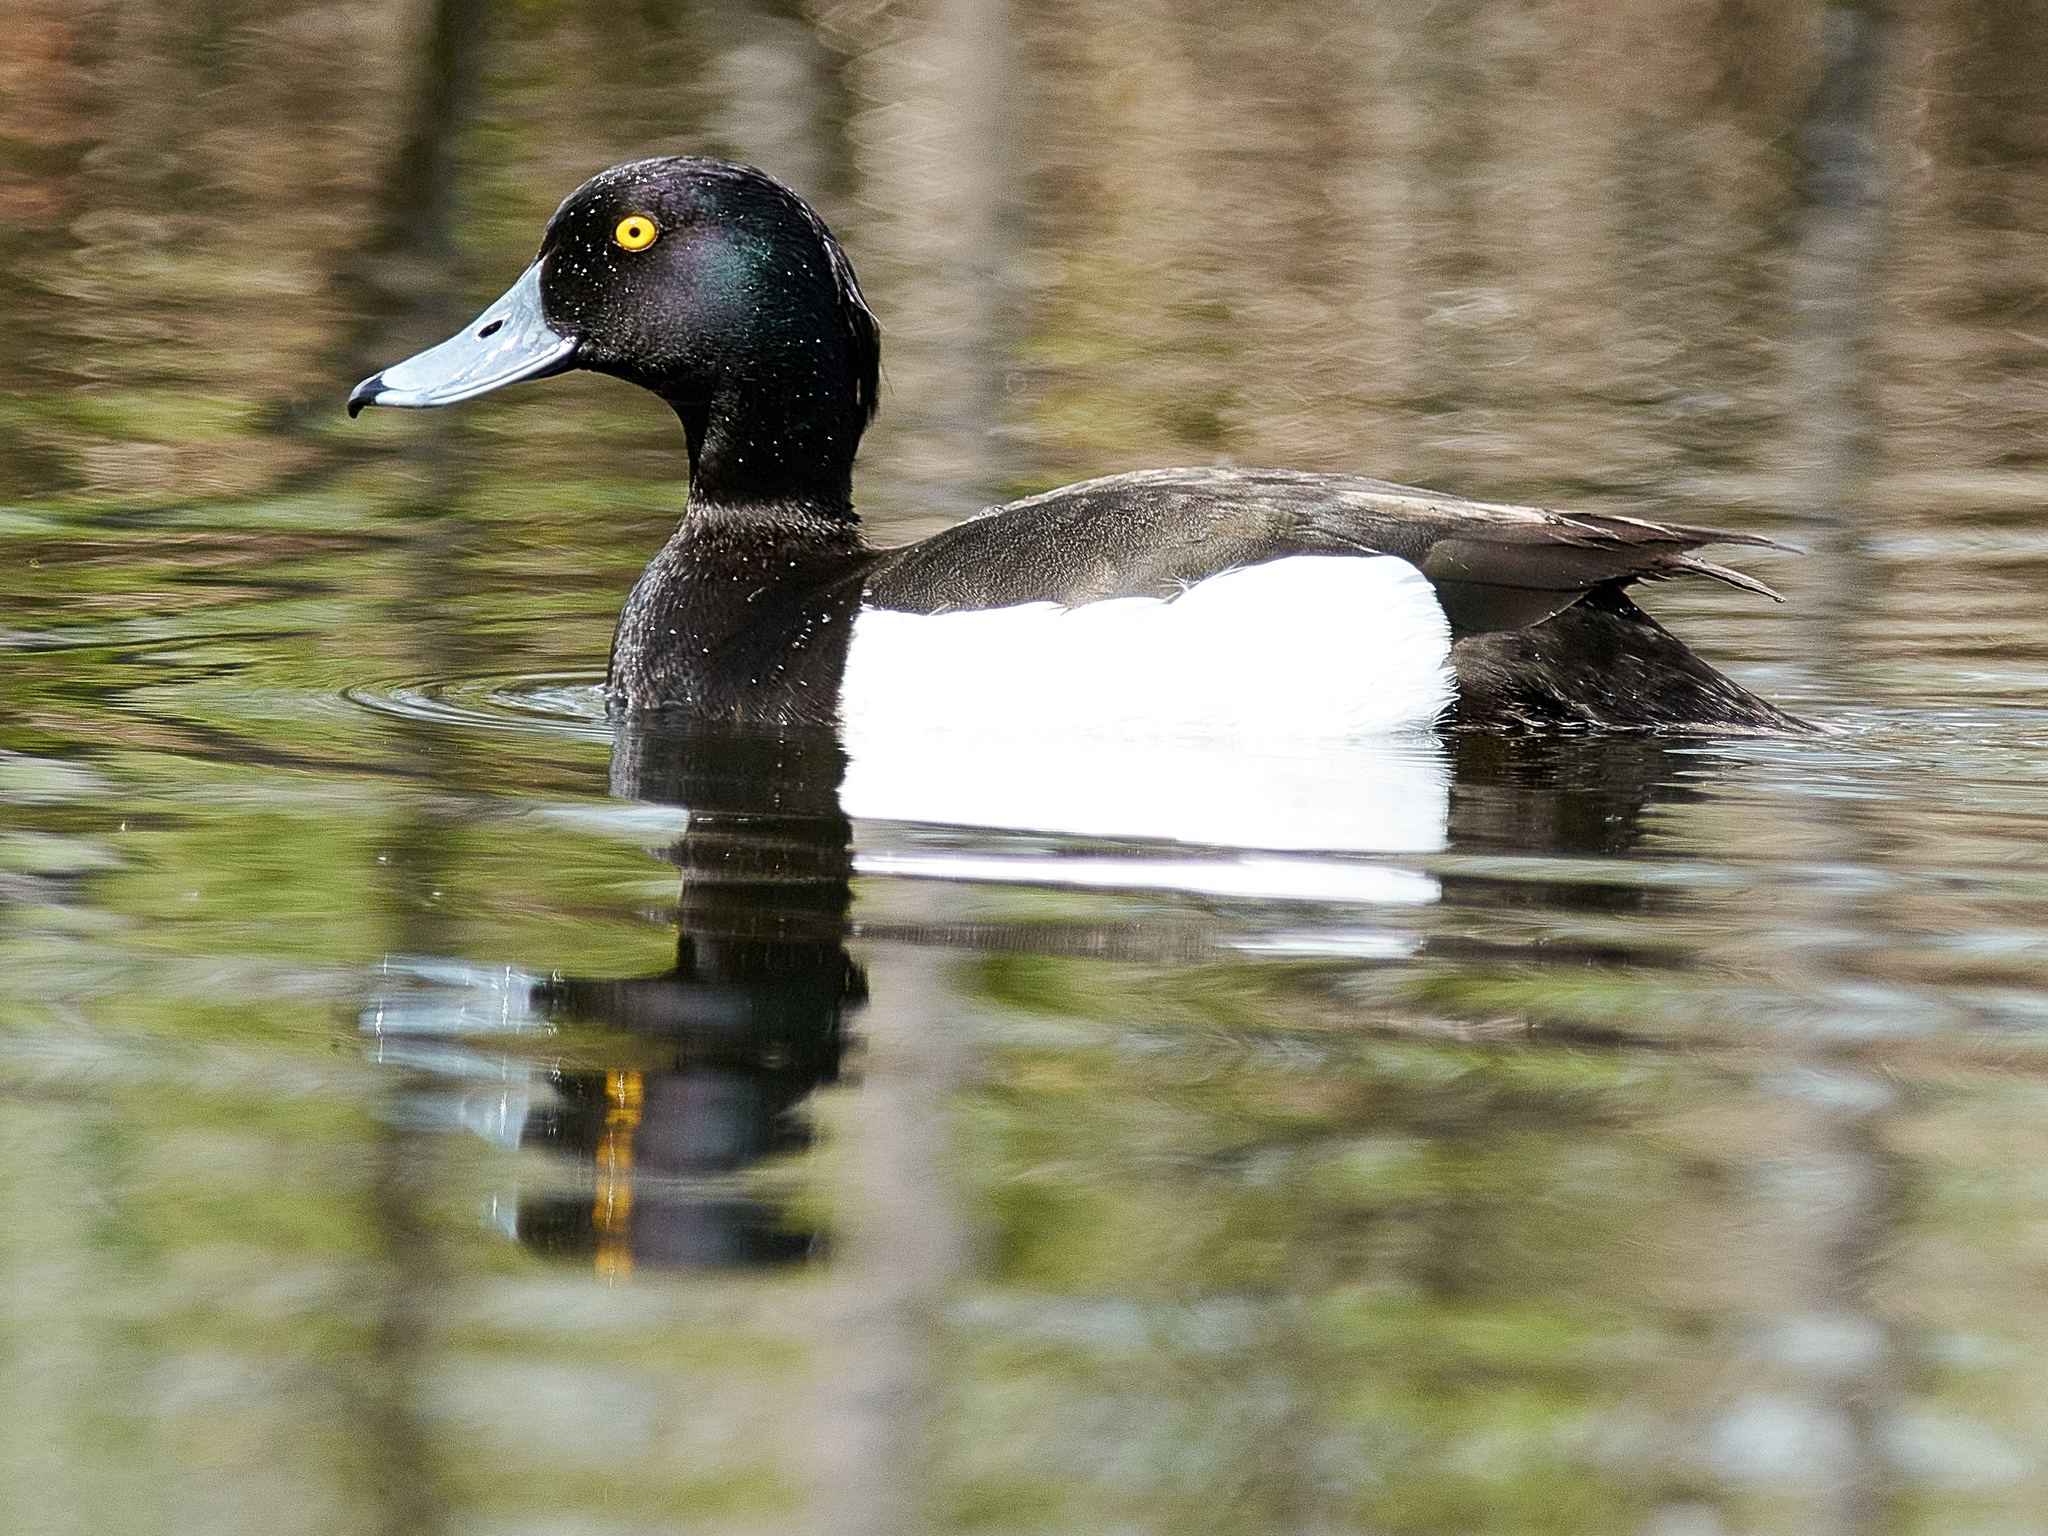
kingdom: Animalia
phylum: Chordata
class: Aves
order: Anseriformes
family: Anatidae
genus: Aythya
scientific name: Aythya fuligula
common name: Tufted duck
